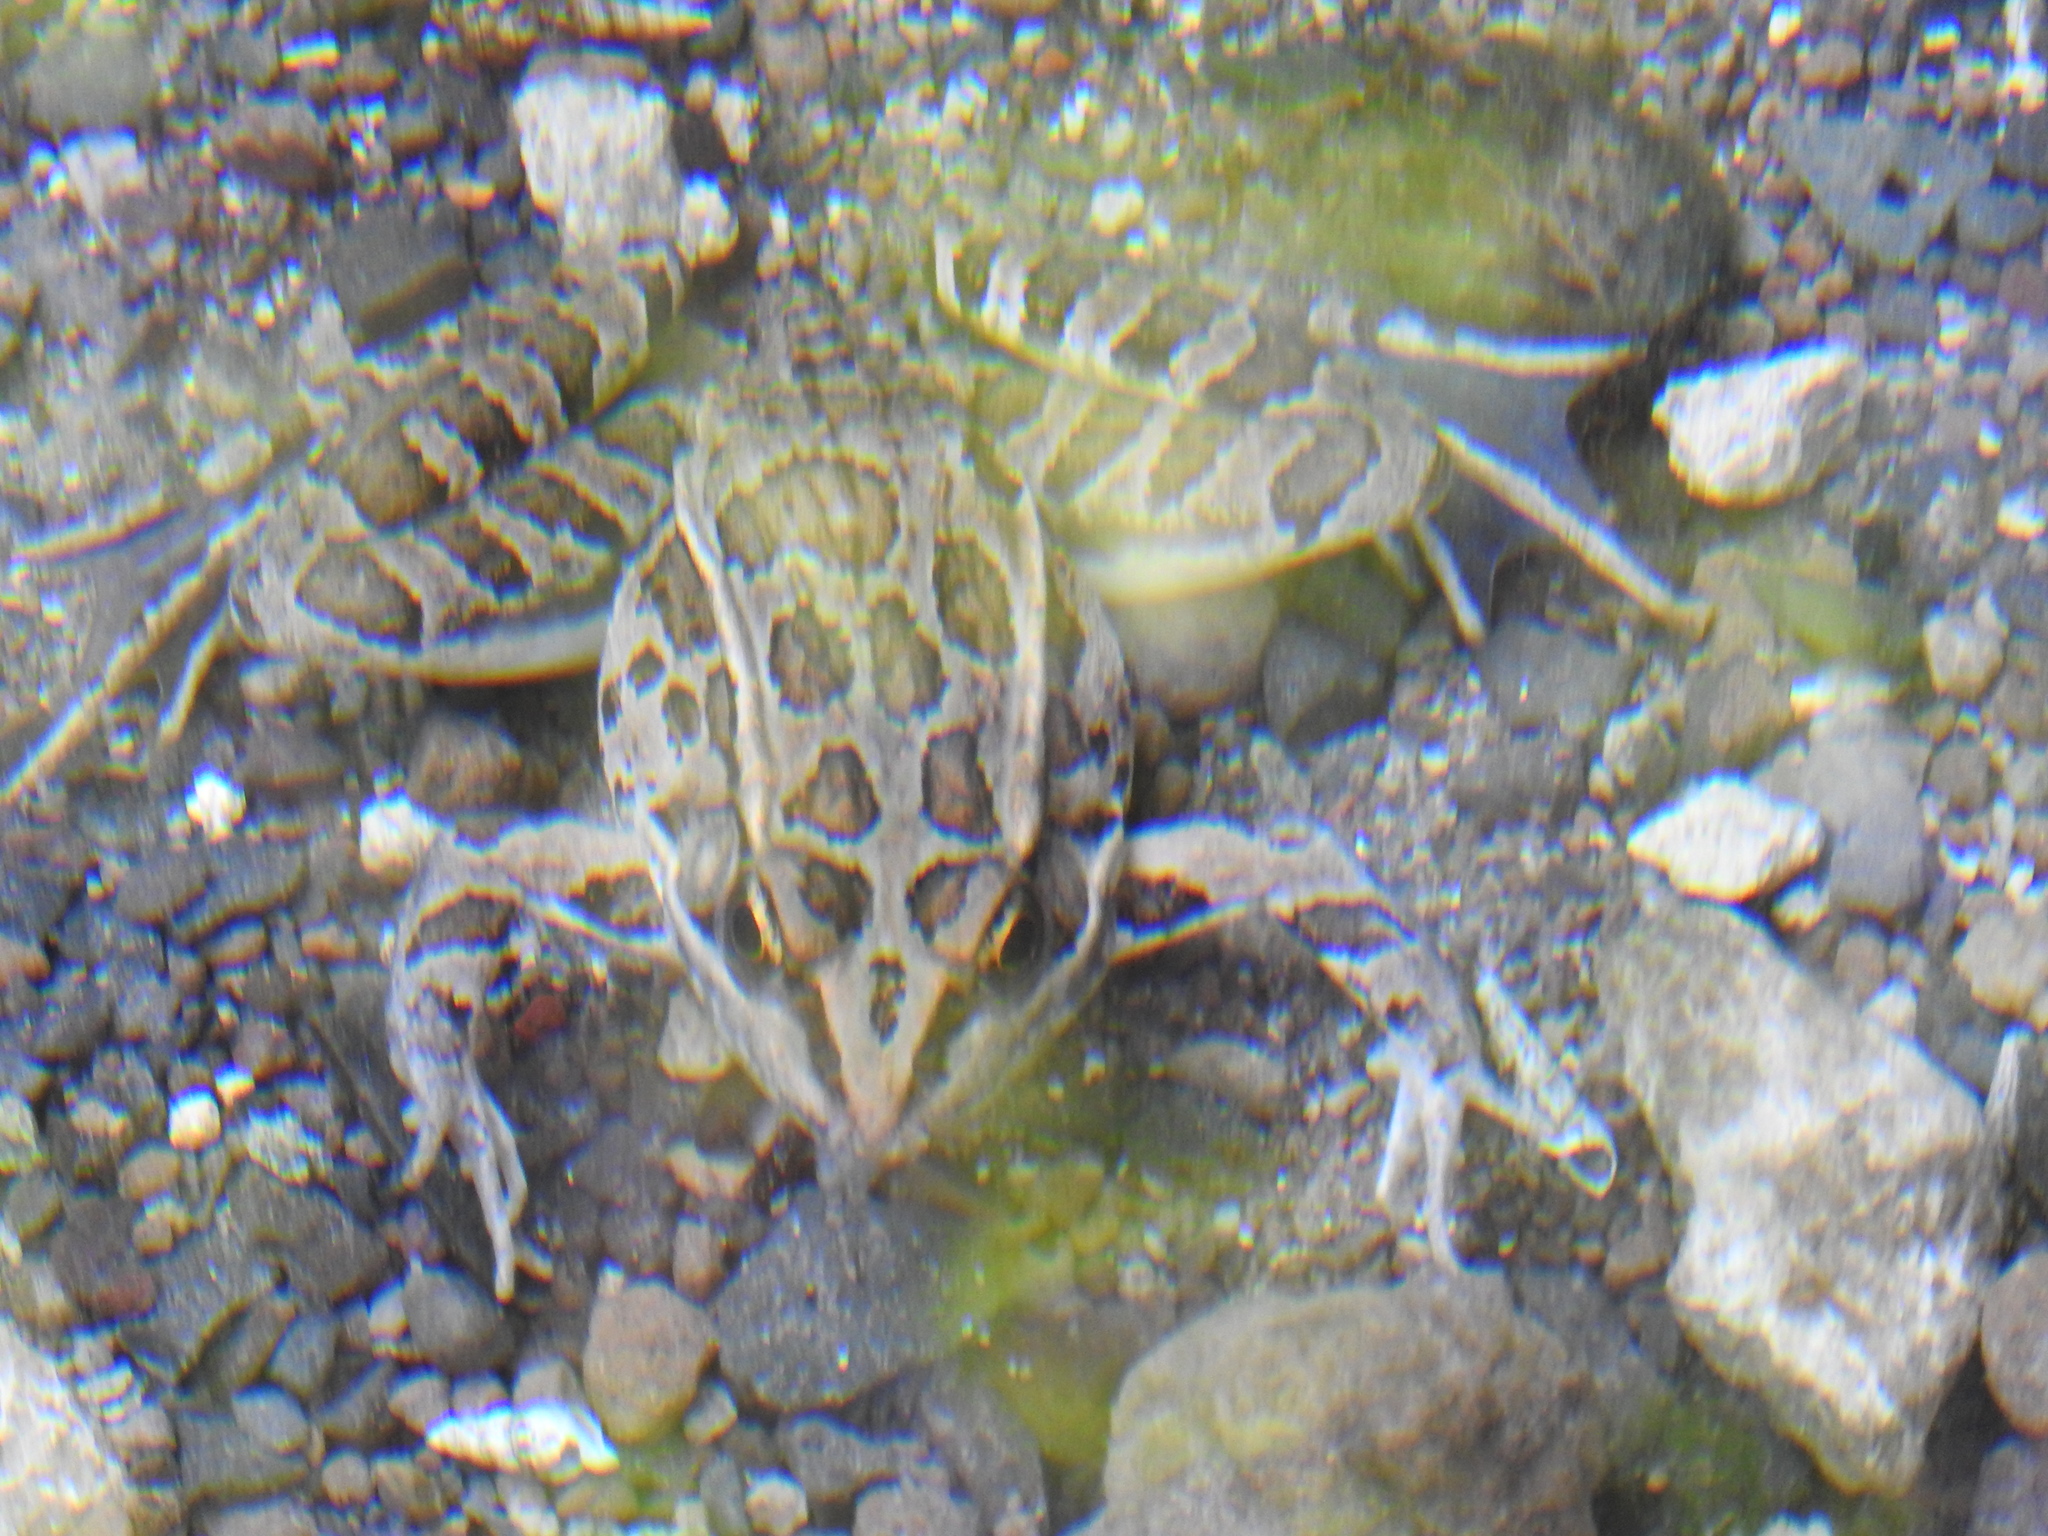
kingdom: Animalia
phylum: Chordata
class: Amphibia
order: Anura
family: Ranidae
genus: Lithobates
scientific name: Lithobates neovolcanicus
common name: Transverse volcanic leopard frog
